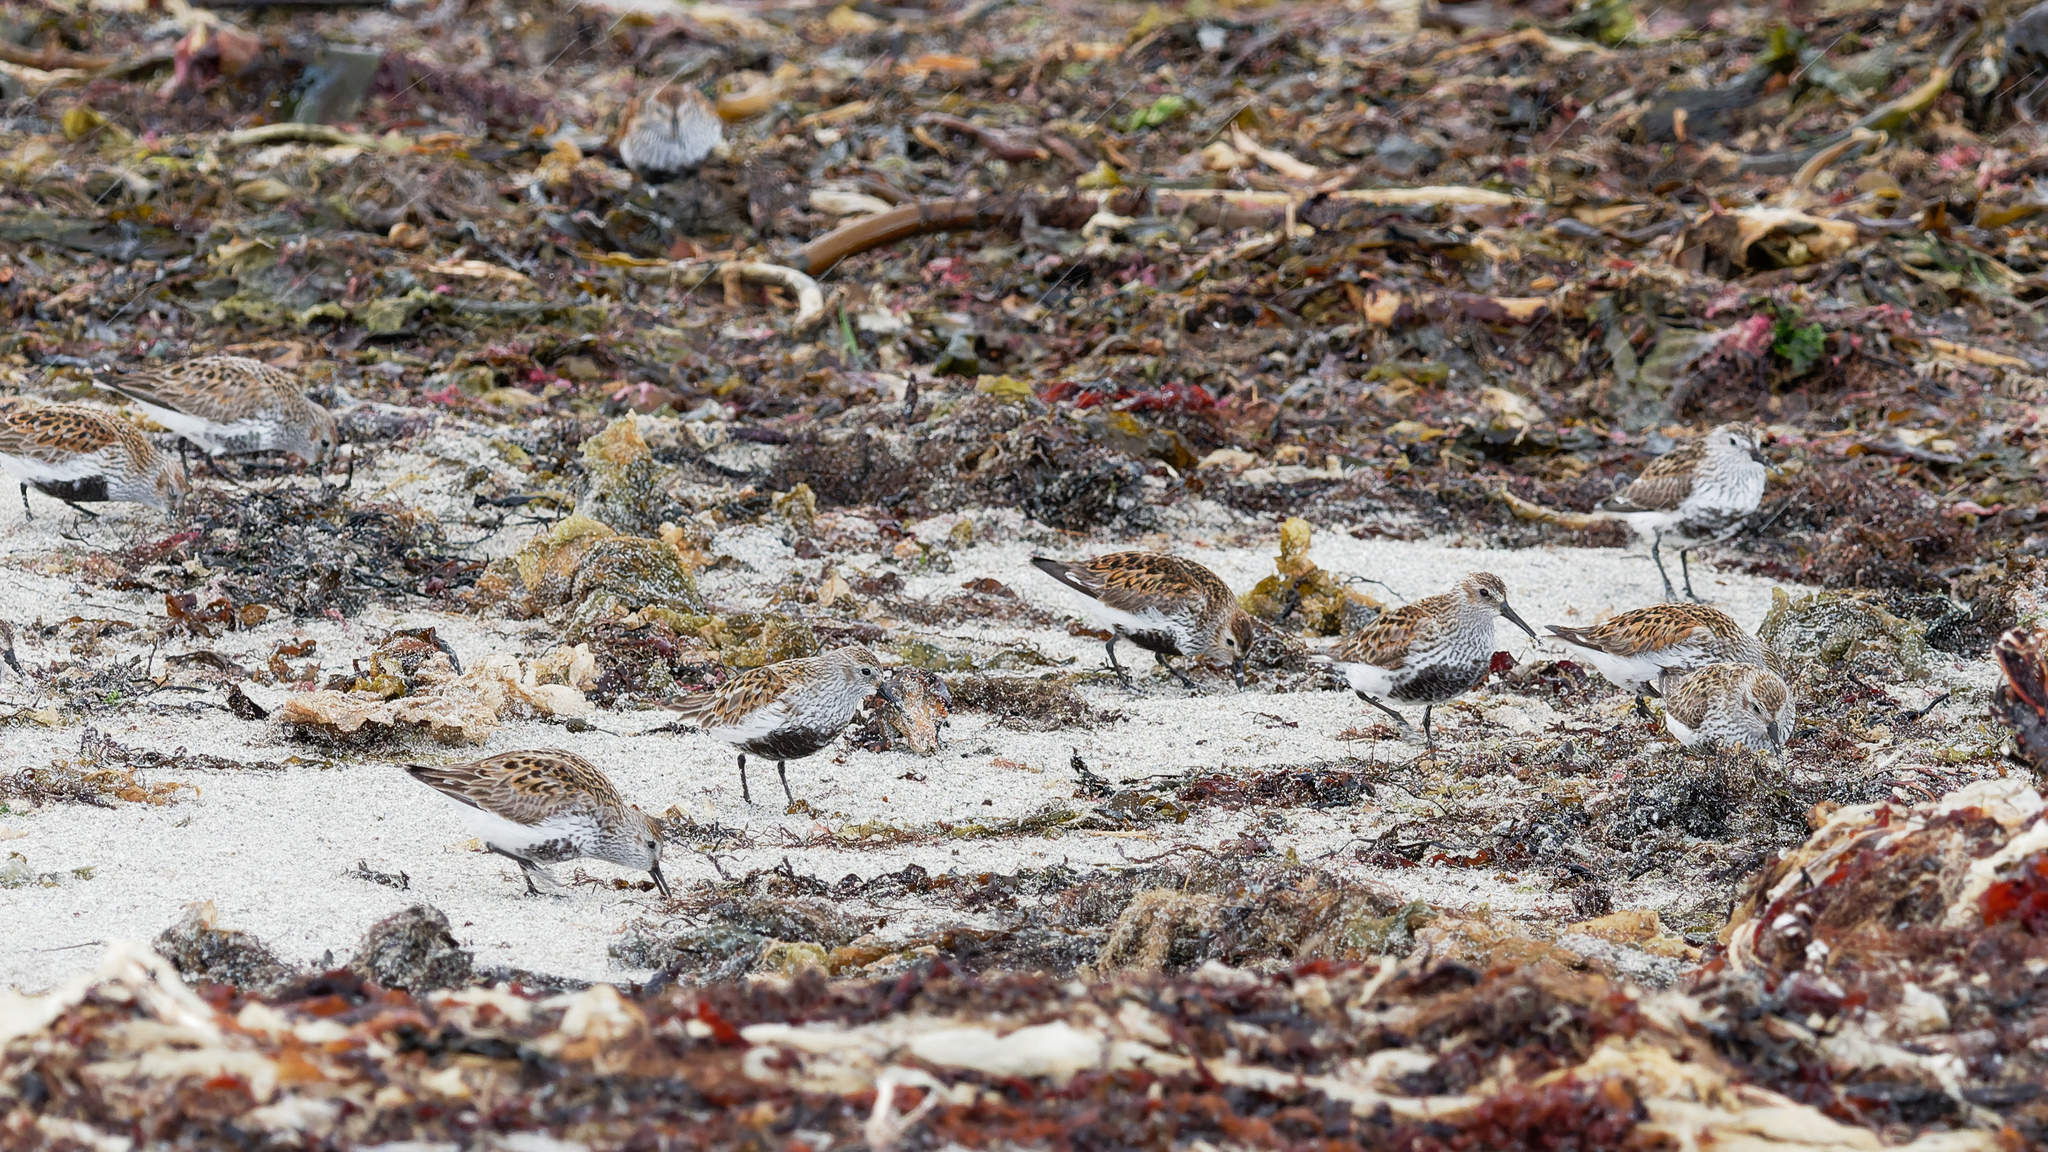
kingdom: Animalia
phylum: Chordata
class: Aves
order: Charadriiformes
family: Scolopacidae
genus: Calidris
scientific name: Calidris alpina
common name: Dunlin
